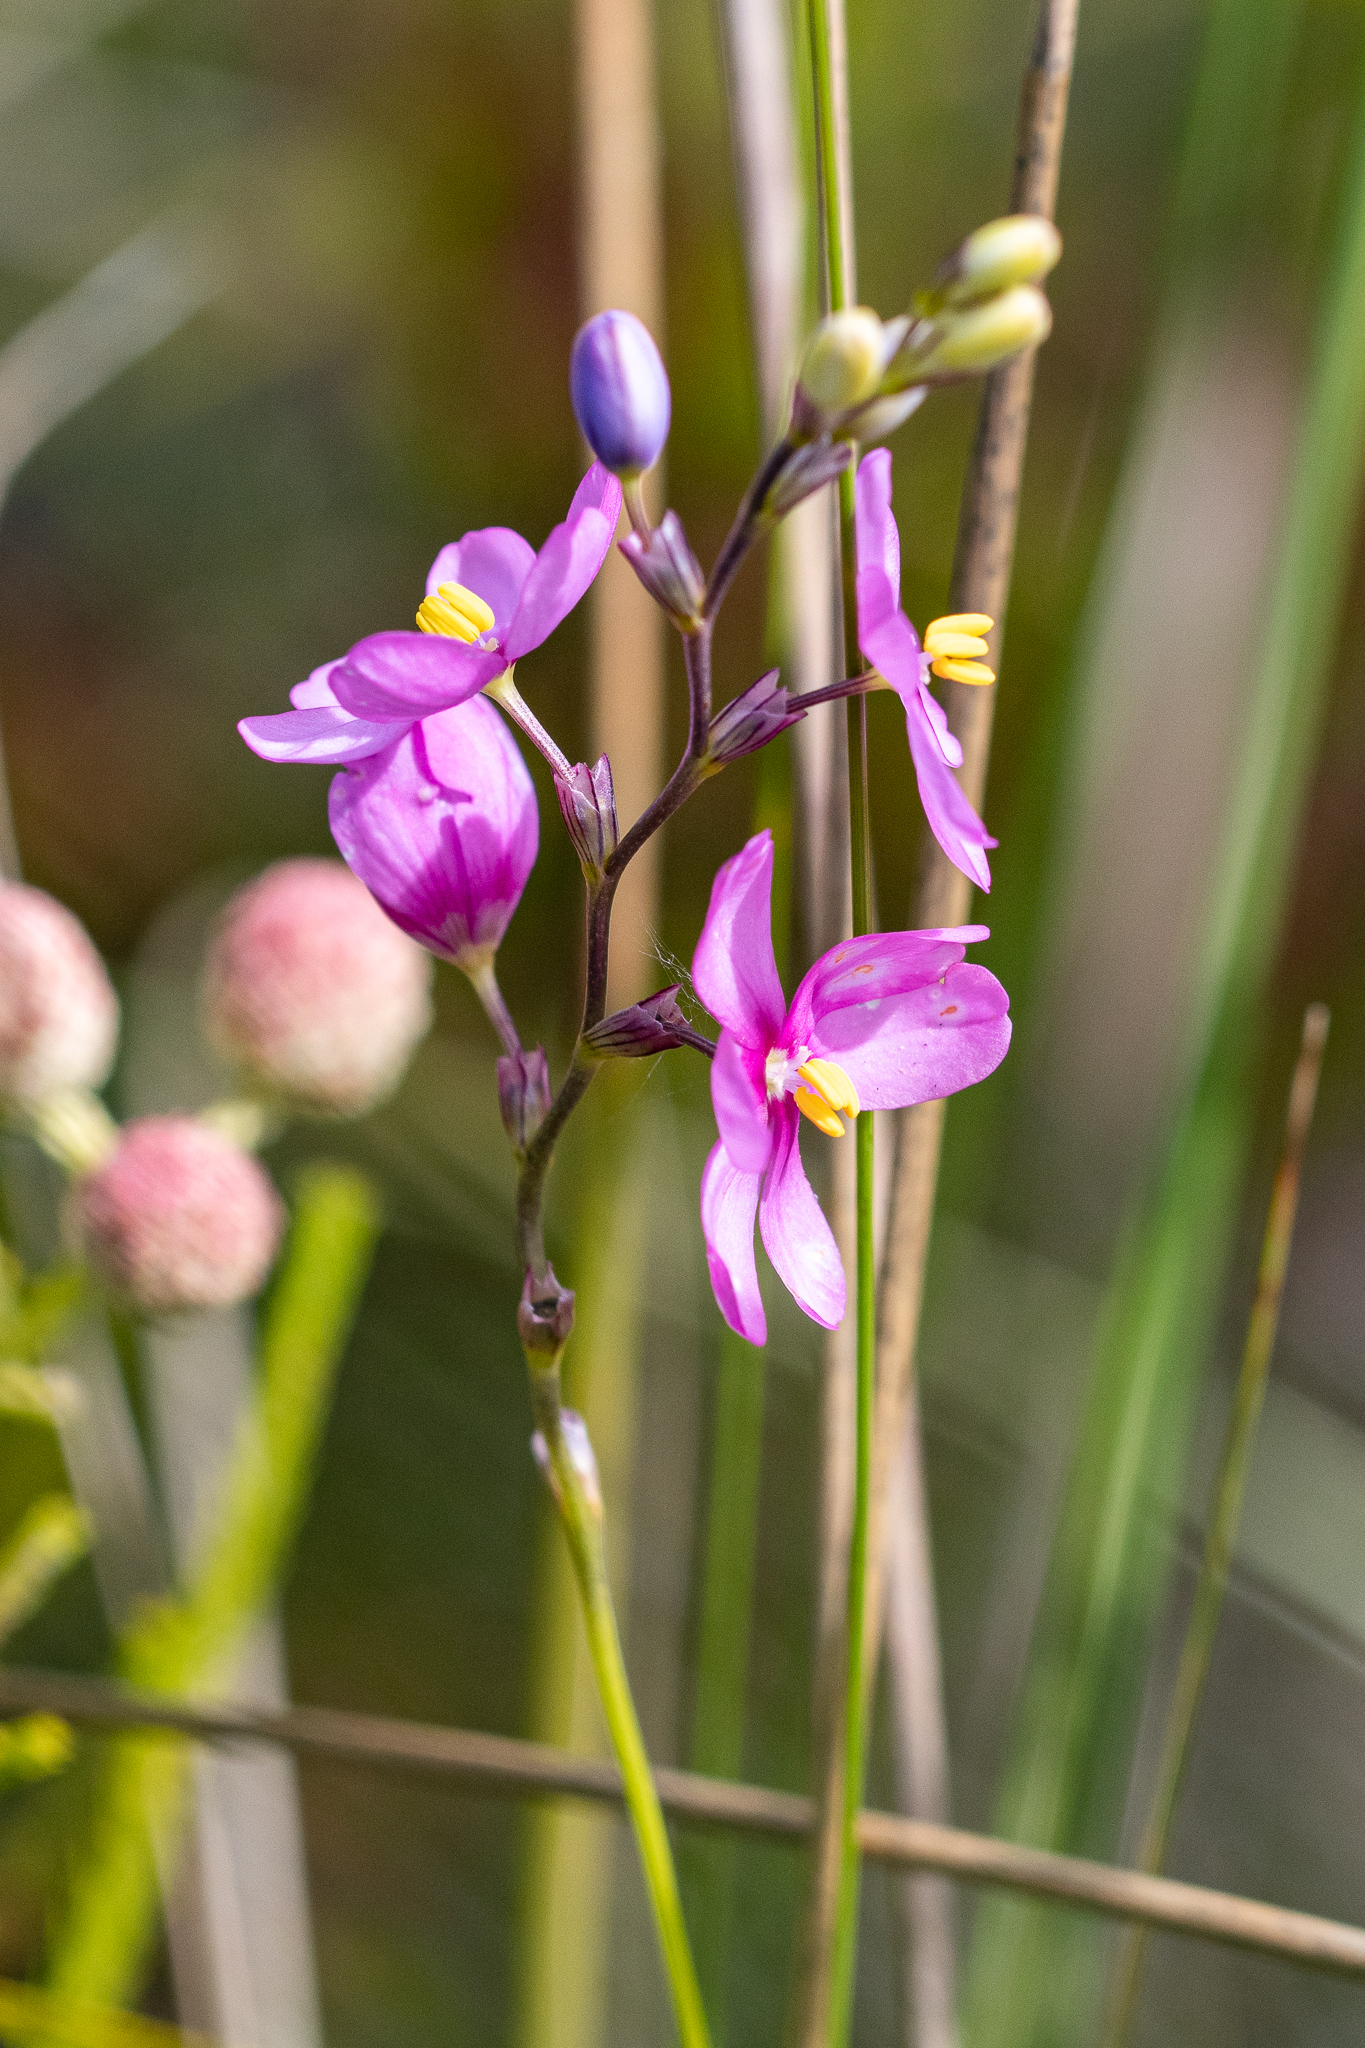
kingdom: Plantae
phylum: Tracheophyta
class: Liliopsida
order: Asparagales
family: Iridaceae
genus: Ixia
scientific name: Ixia stricta
